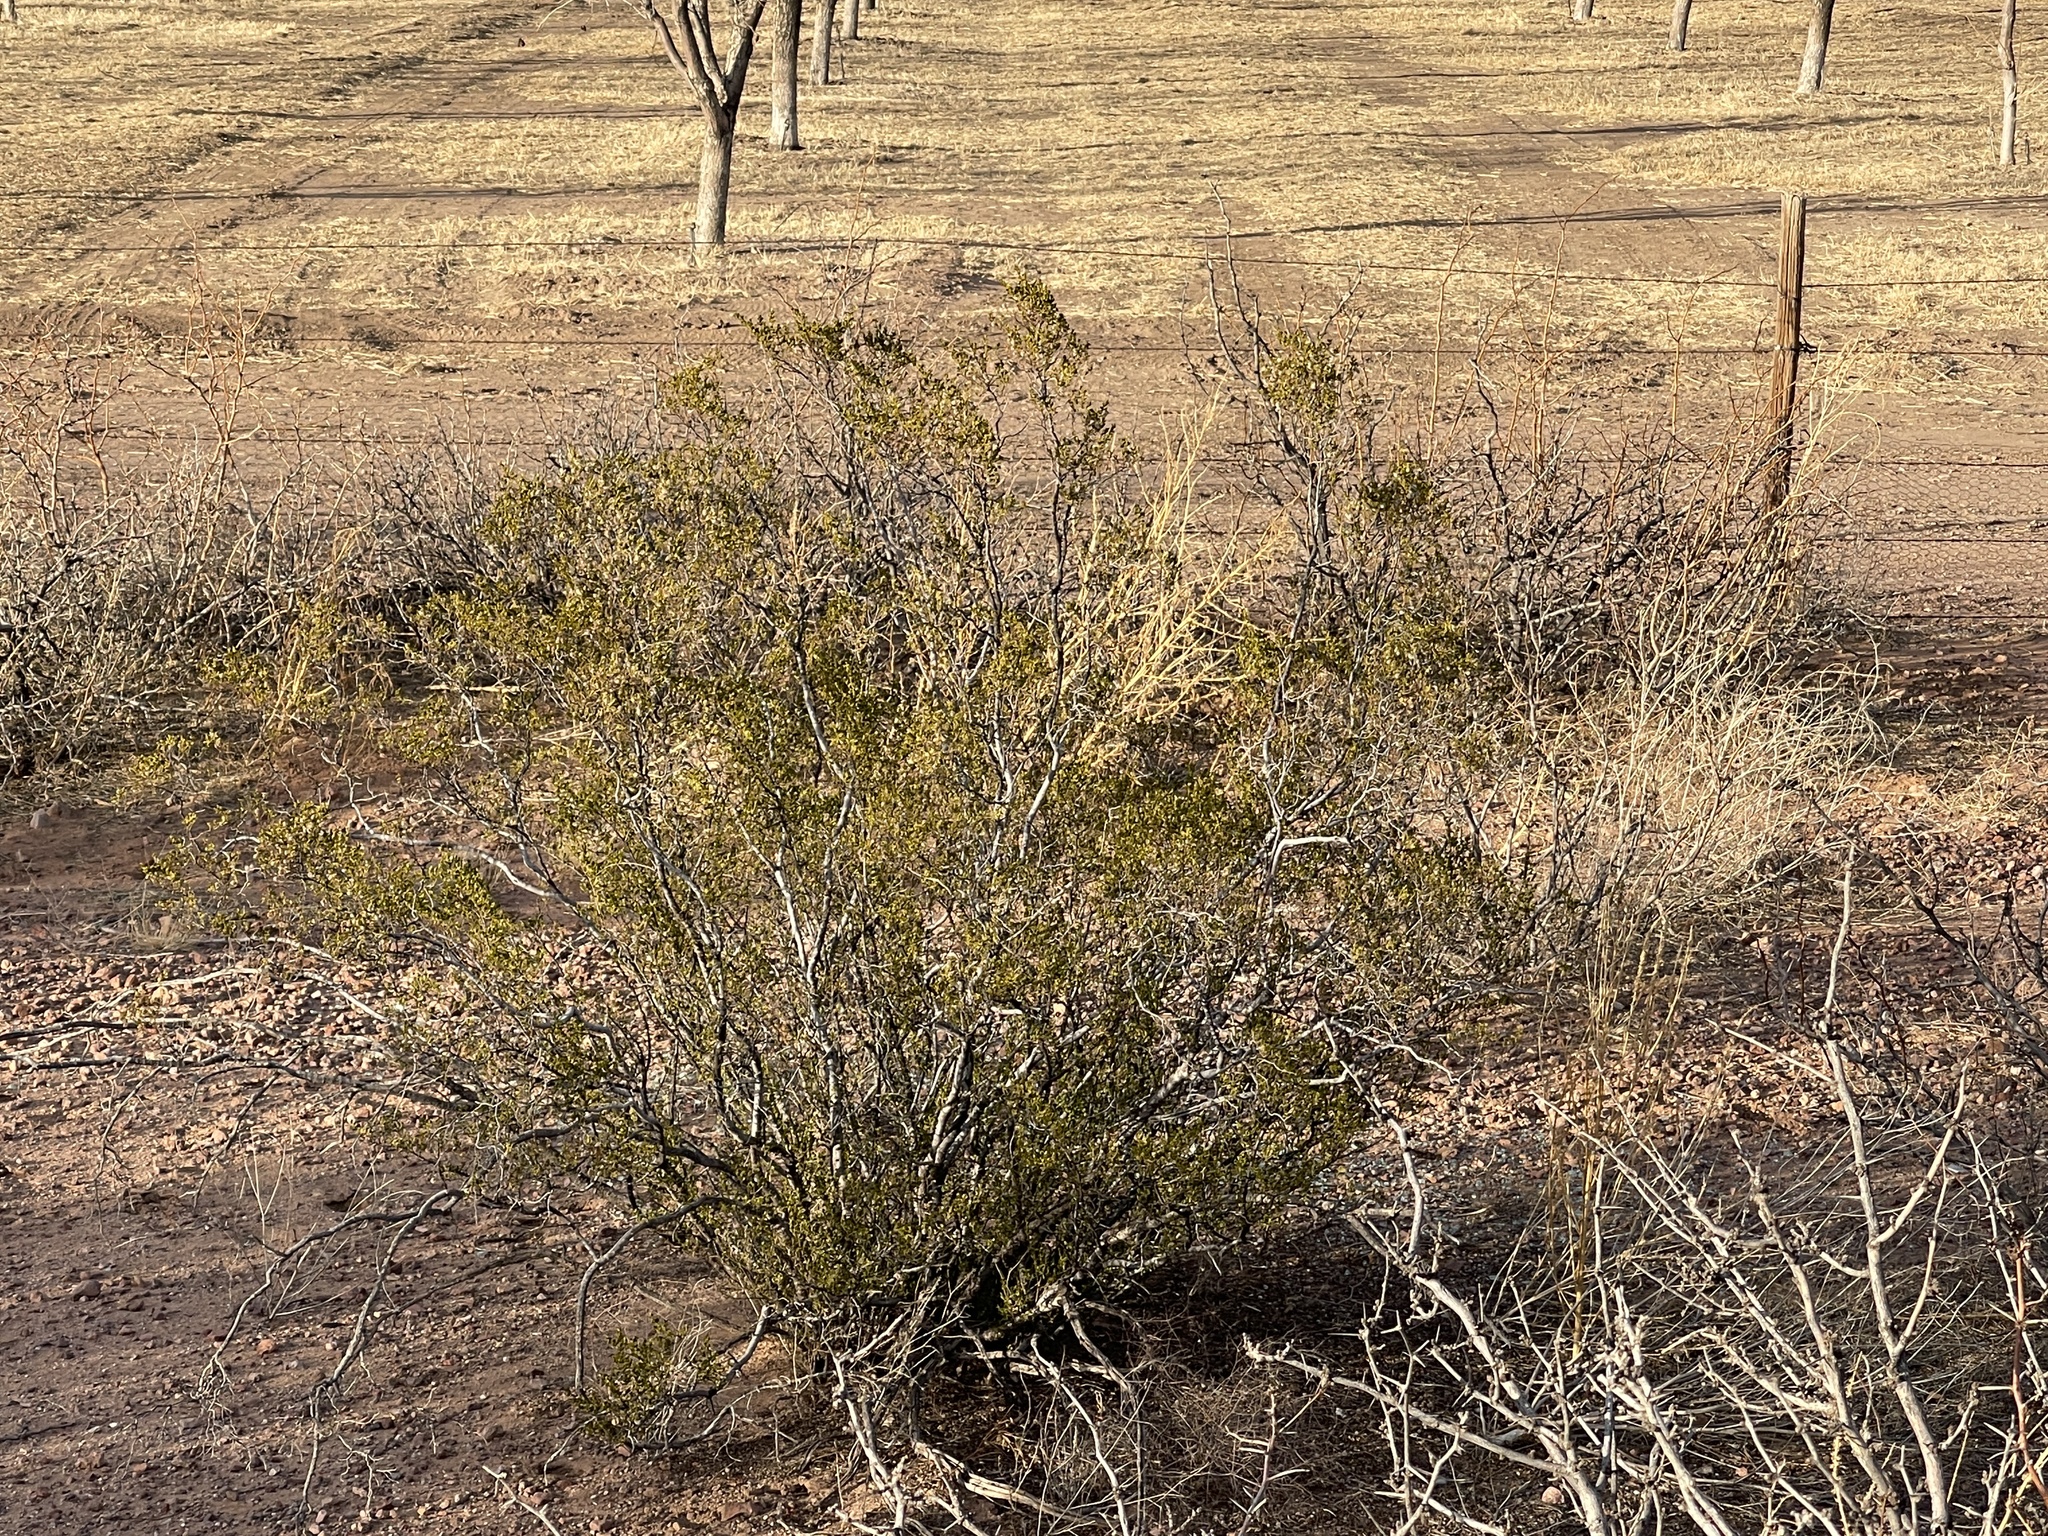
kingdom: Plantae
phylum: Tracheophyta
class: Magnoliopsida
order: Zygophyllales
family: Zygophyllaceae
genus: Larrea
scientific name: Larrea tridentata
